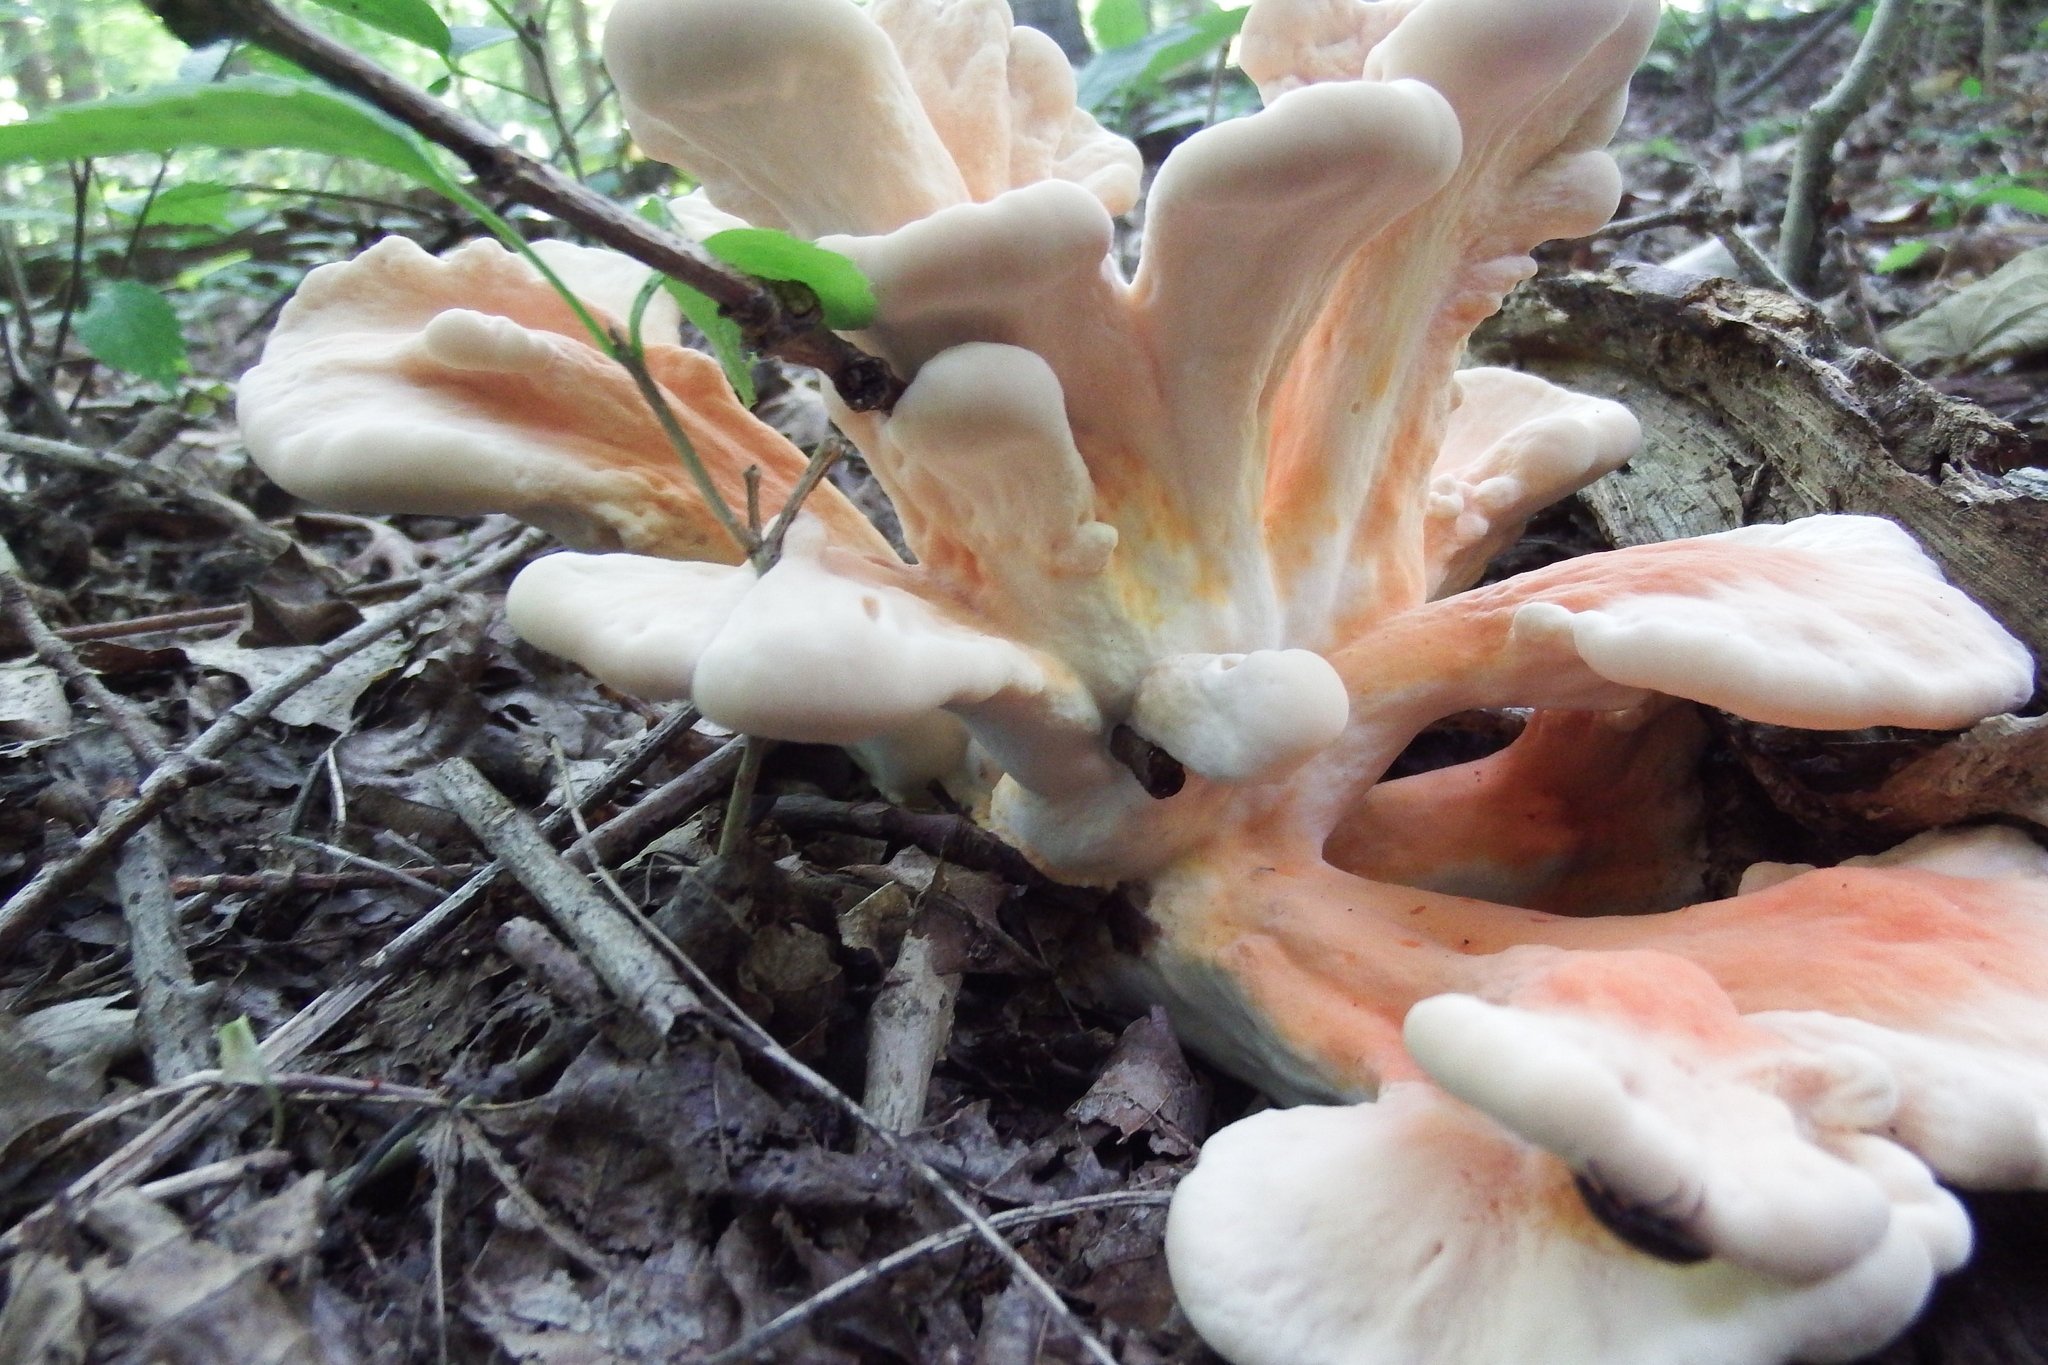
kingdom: Fungi
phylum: Basidiomycota
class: Agaricomycetes
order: Polyporales
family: Laetiporaceae
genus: Laetiporus
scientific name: Laetiporus sulphureus
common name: Chicken of the woods
